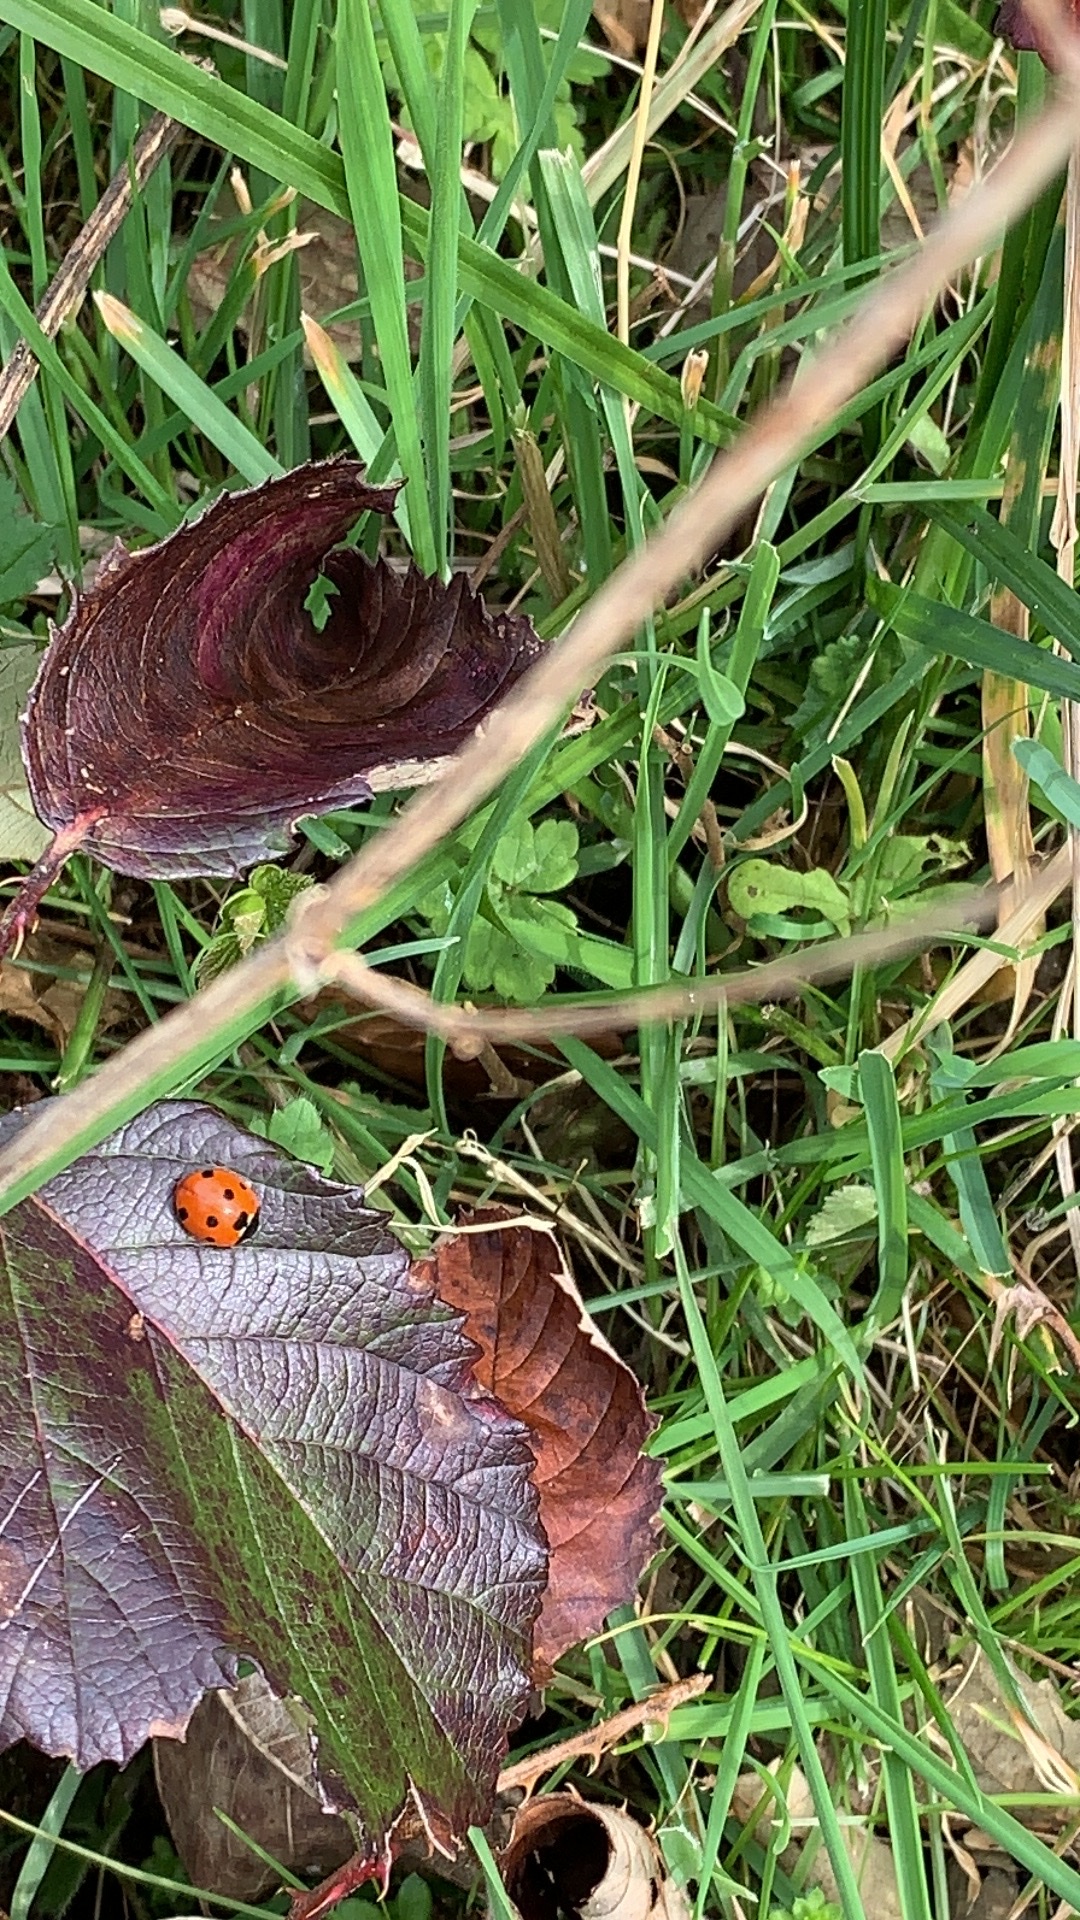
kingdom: Animalia
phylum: Arthropoda
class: Insecta
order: Coleoptera
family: Coccinellidae
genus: Coccinella
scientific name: Coccinella septempunctata
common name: Sevenspotted lady beetle
